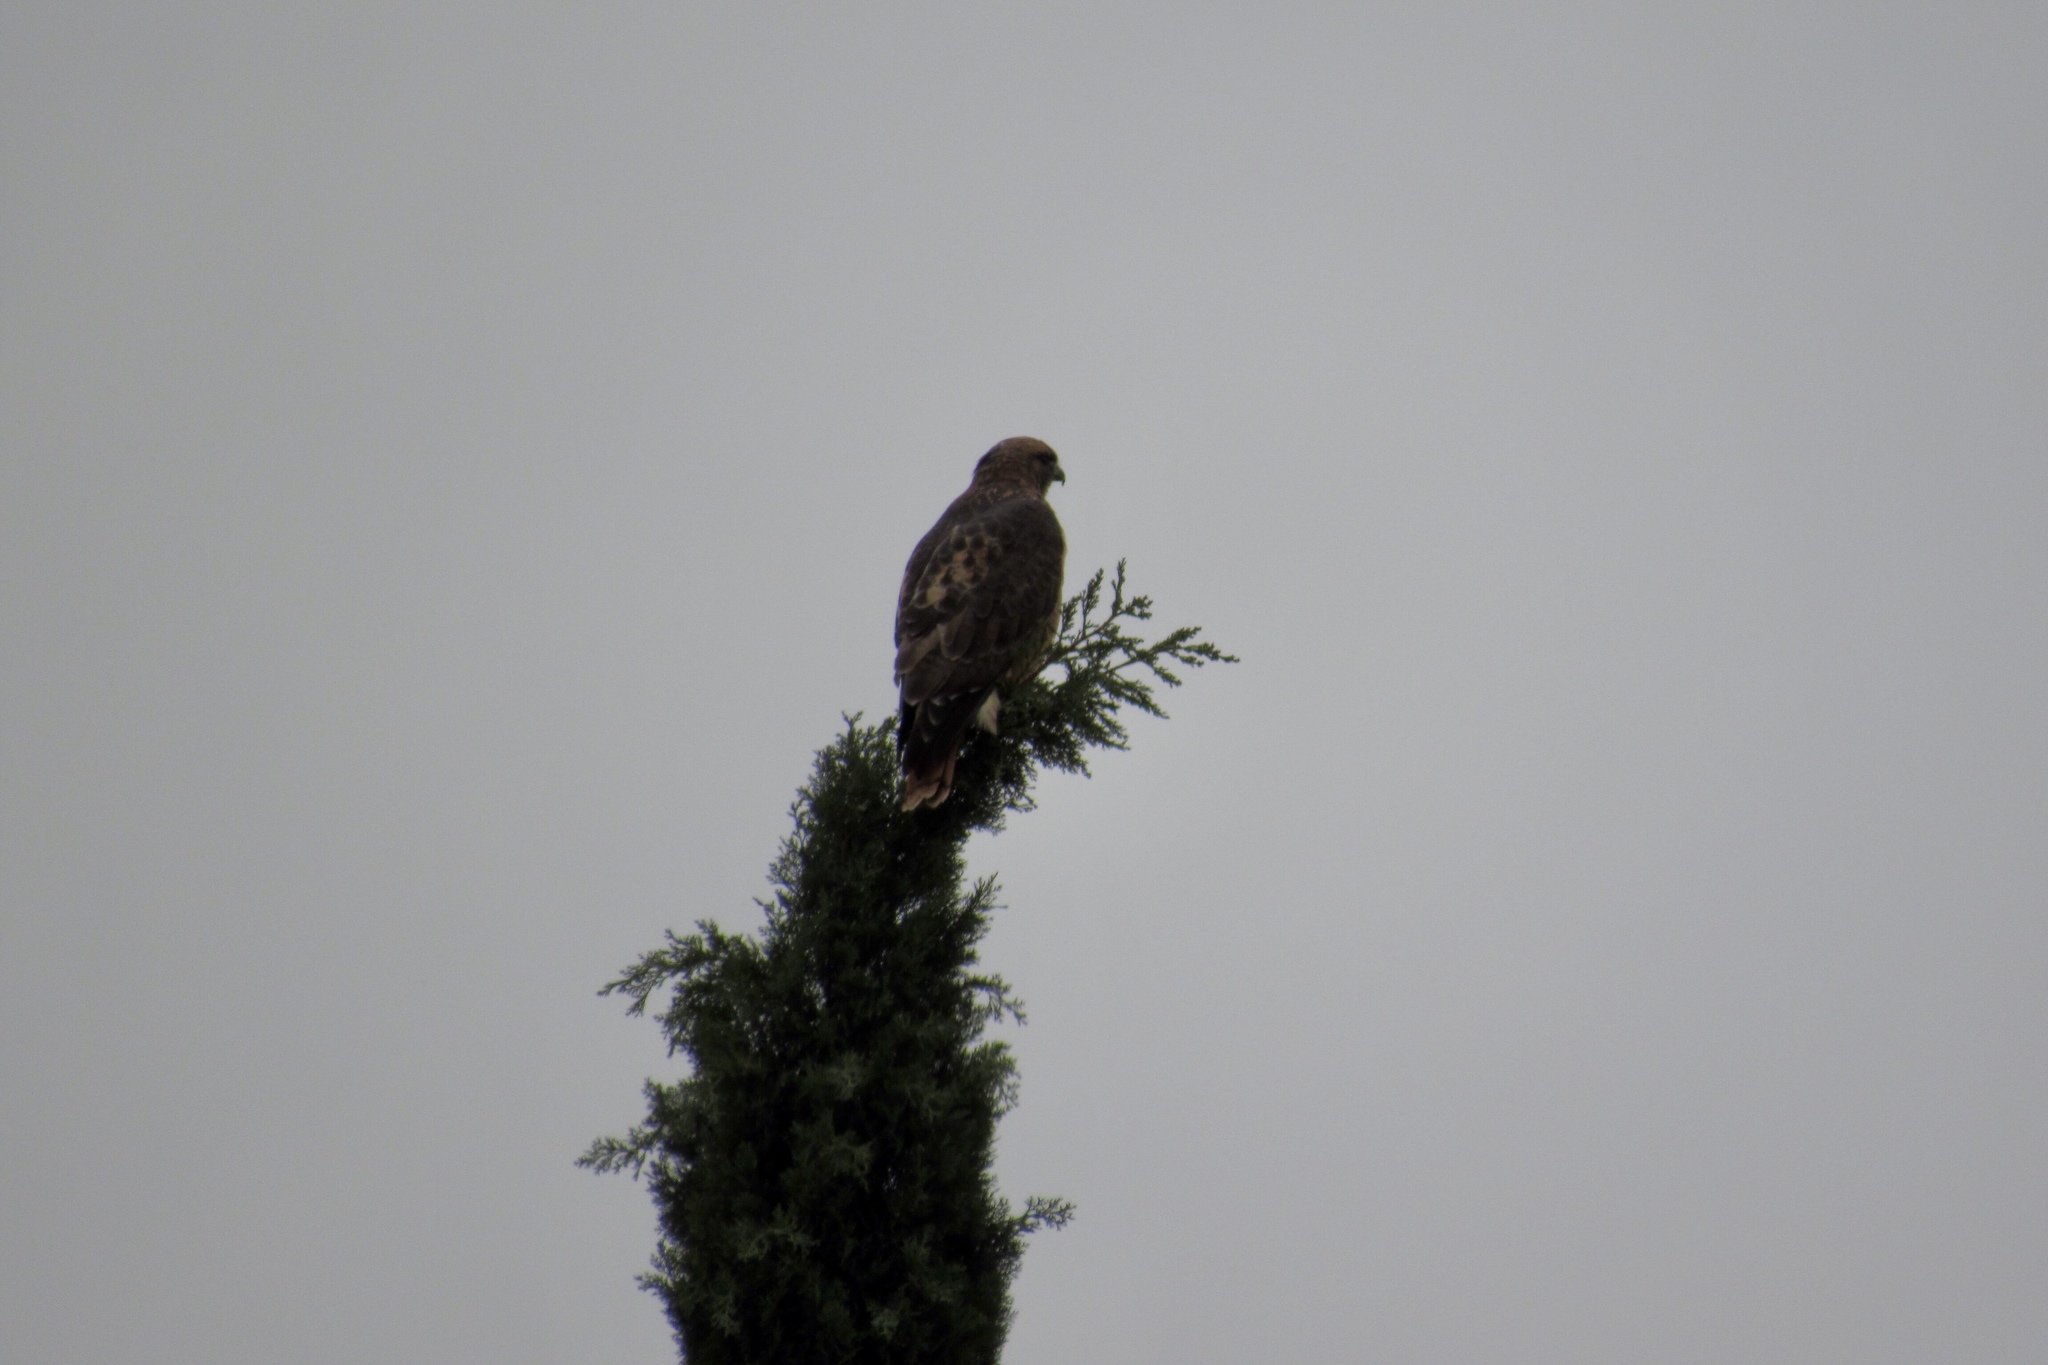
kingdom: Animalia
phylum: Chordata
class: Aves
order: Accipitriformes
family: Accipitridae
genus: Buteo
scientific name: Buteo jamaicensis
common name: Red-tailed hawk
